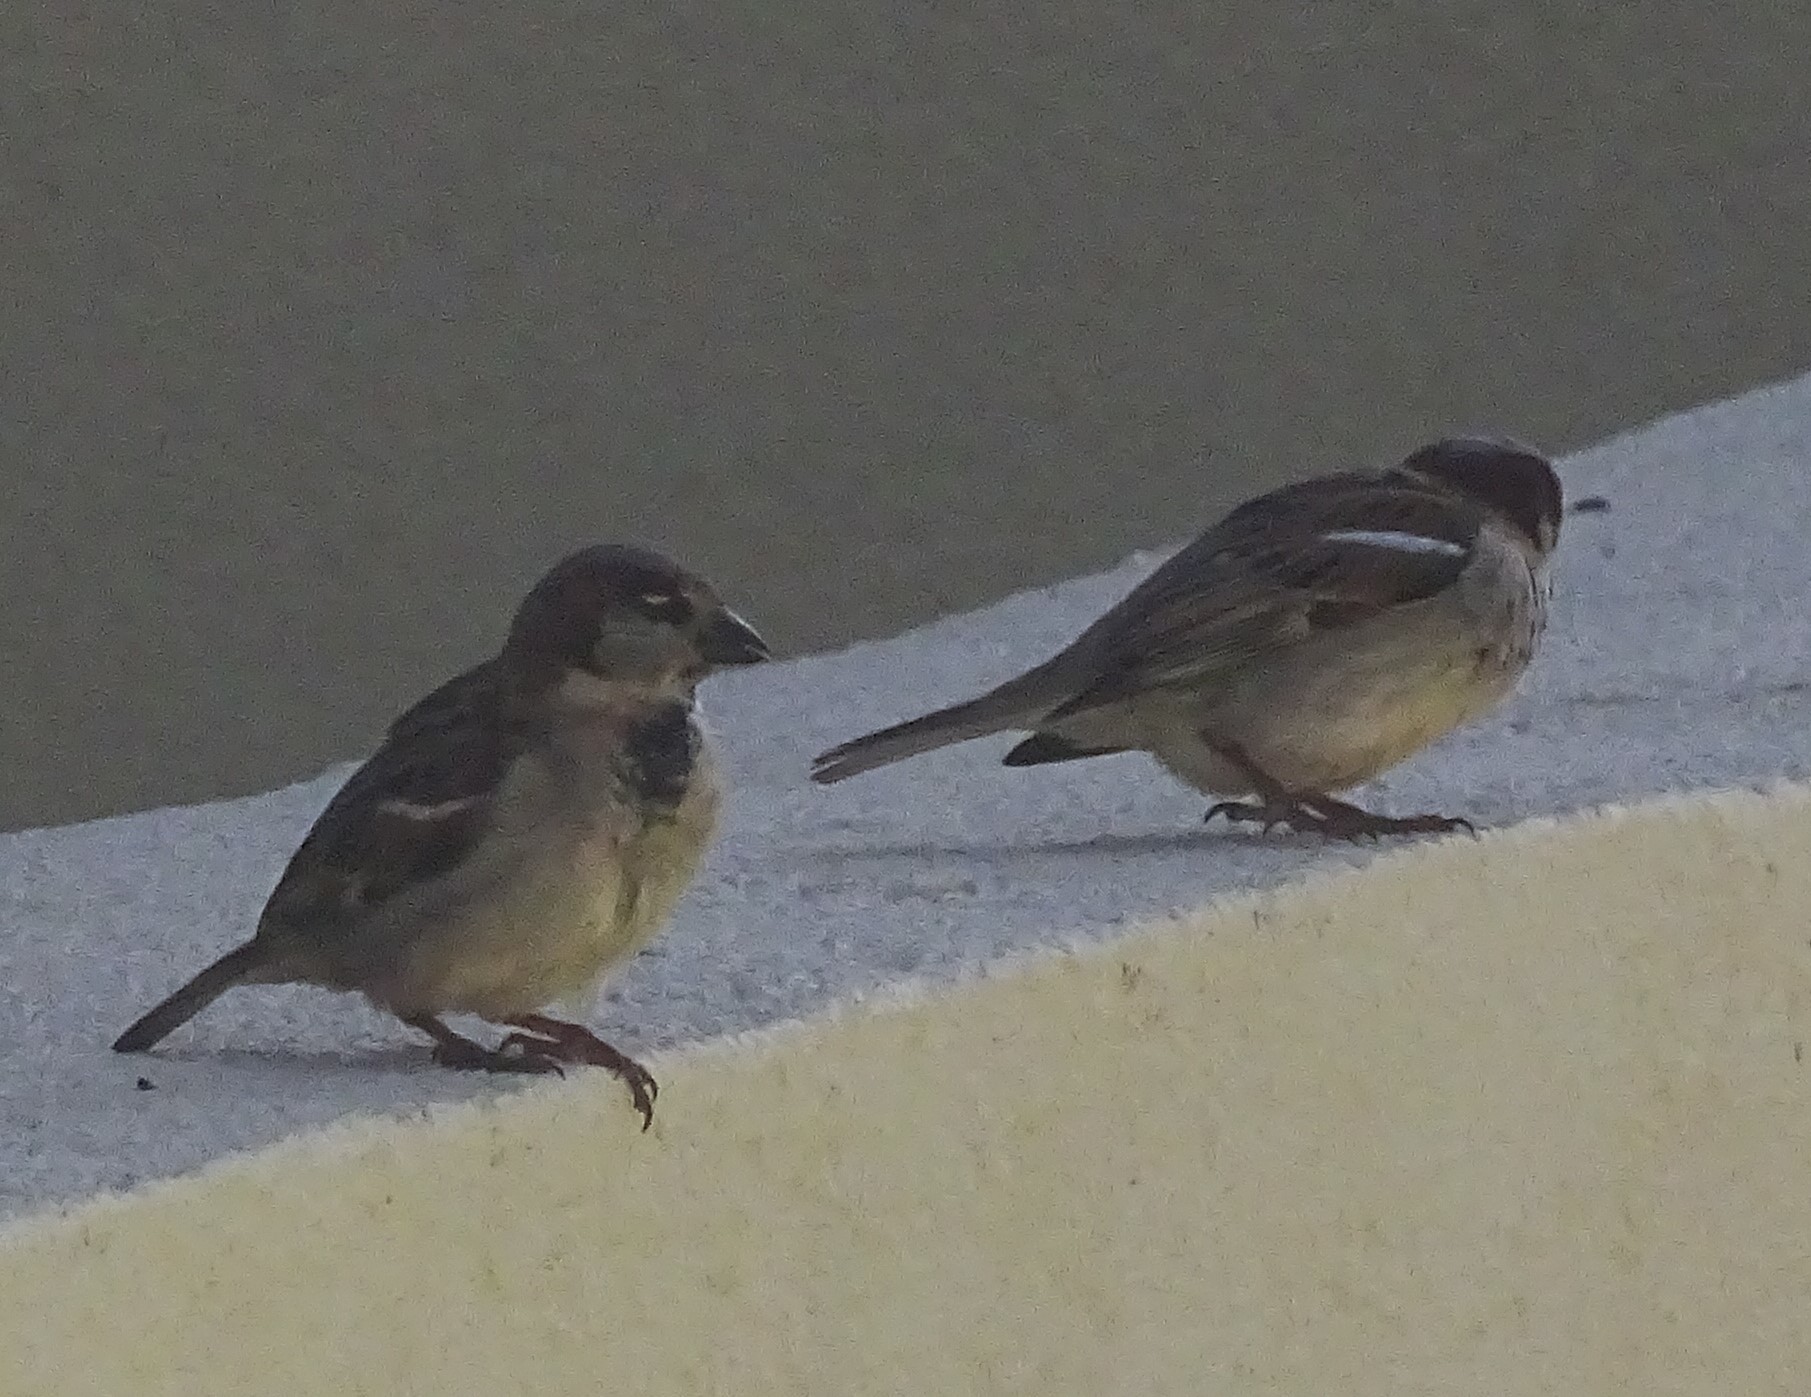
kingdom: Animalia
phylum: Chordata
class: Aves
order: Passeriformes
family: Passeridae
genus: Passer
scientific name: Passer domesticus
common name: House sparrow
